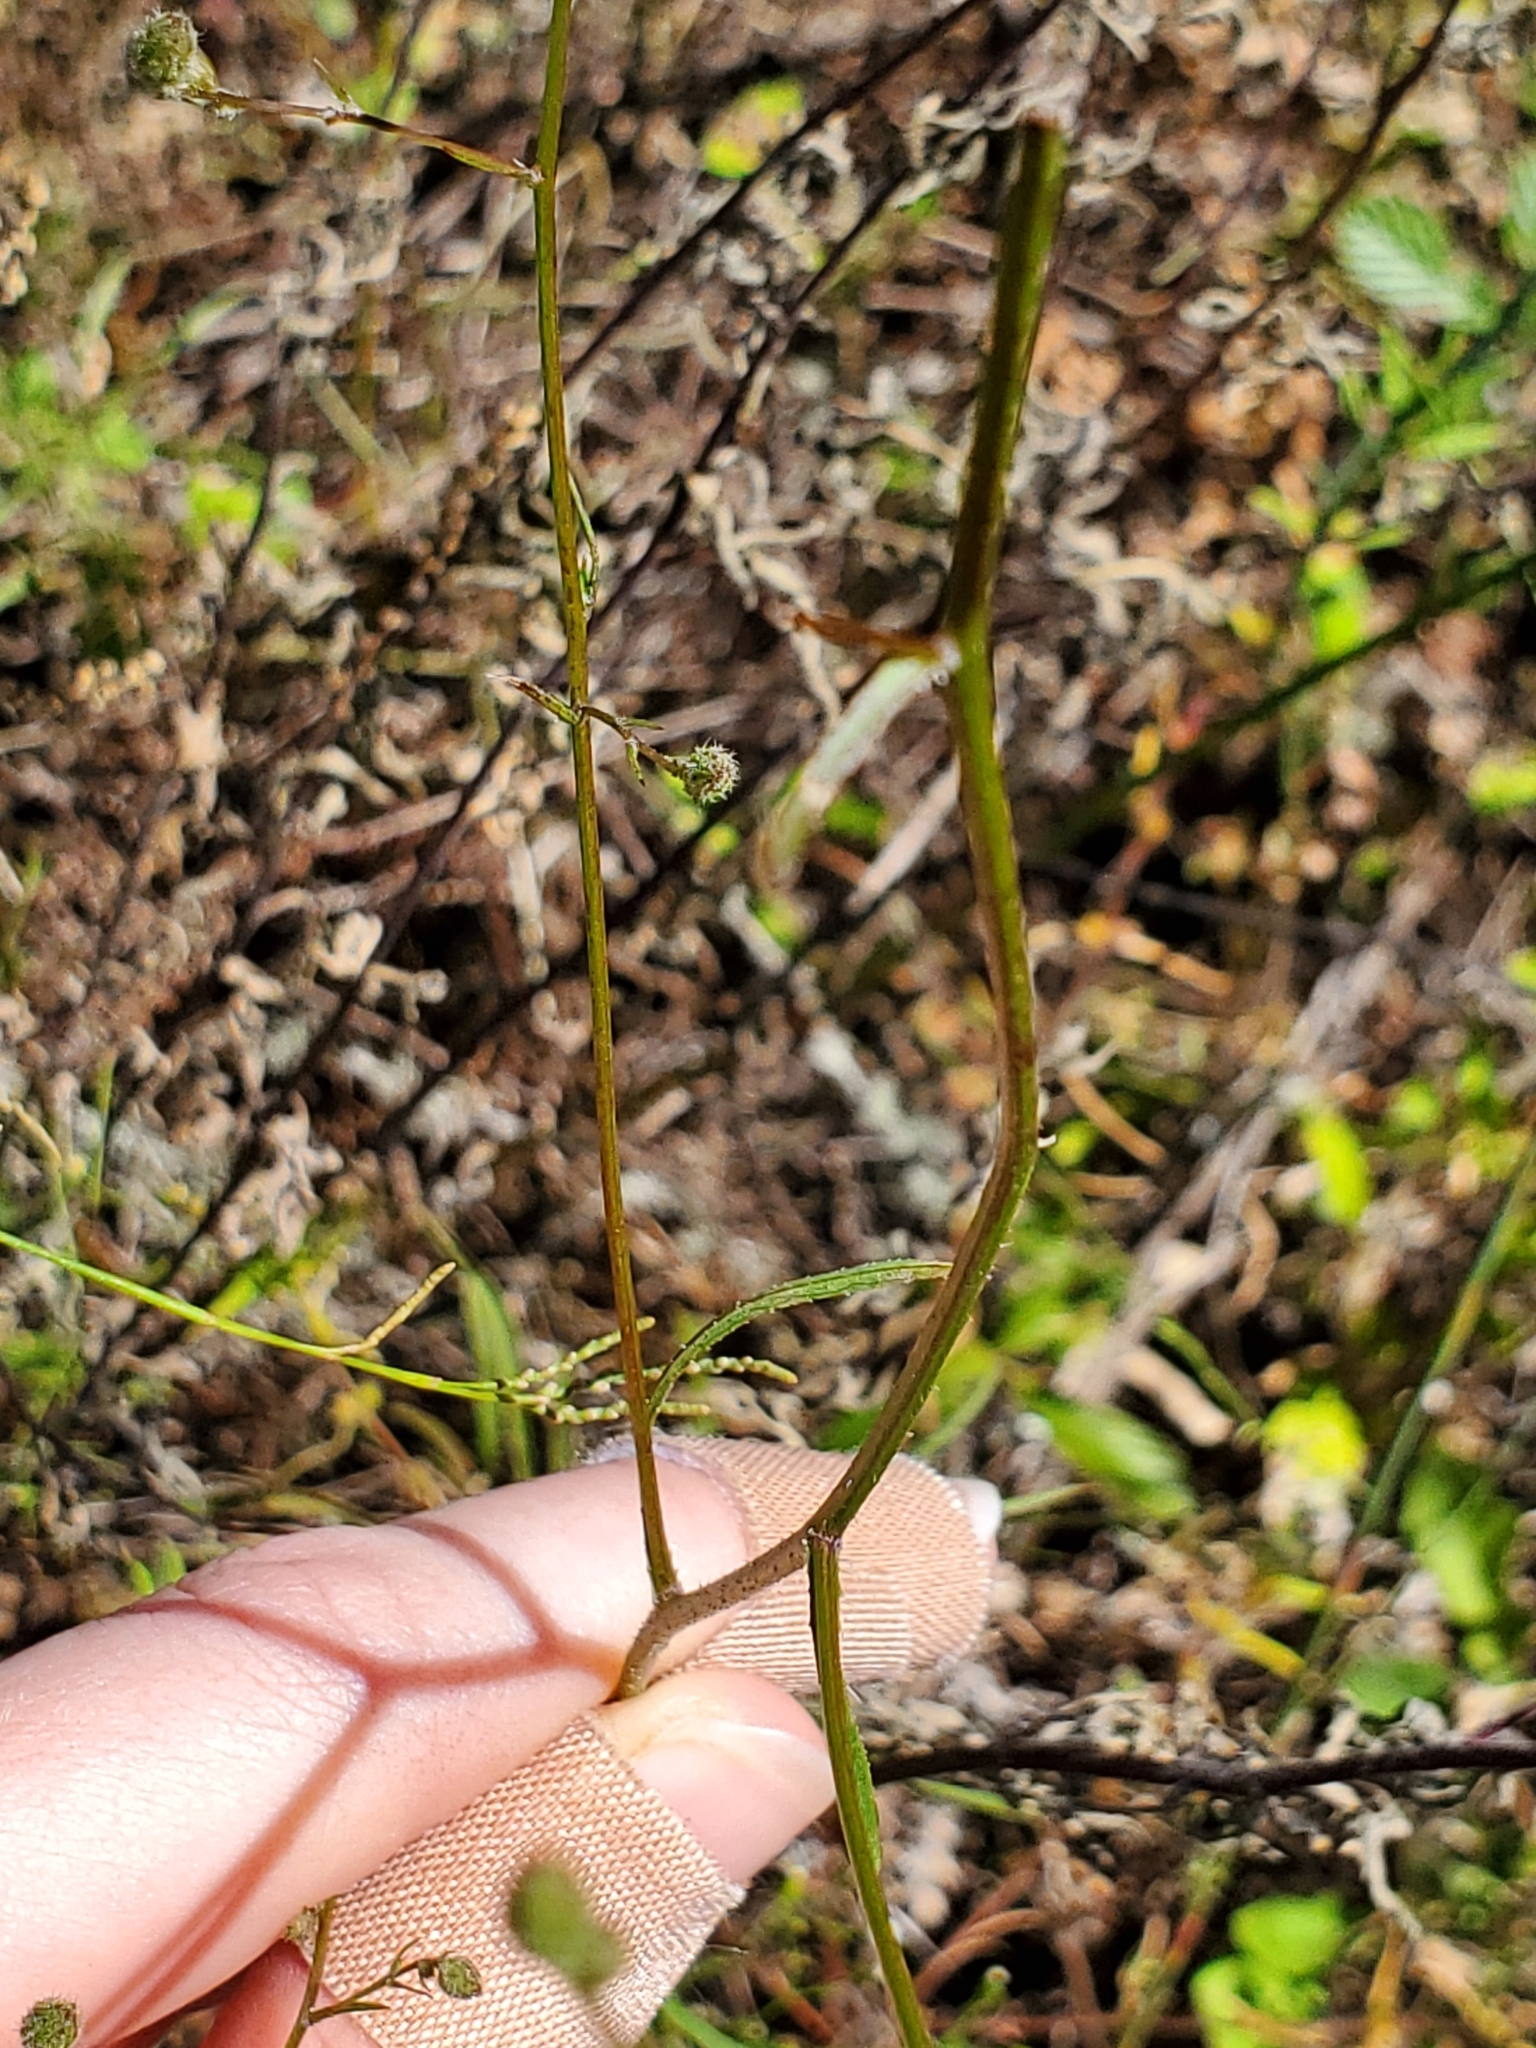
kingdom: Plantae
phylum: Tracheophyta
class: Magnoliopsida
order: Asterales
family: Asteraceae
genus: Croptilon
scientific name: Croptilon divaricatum
